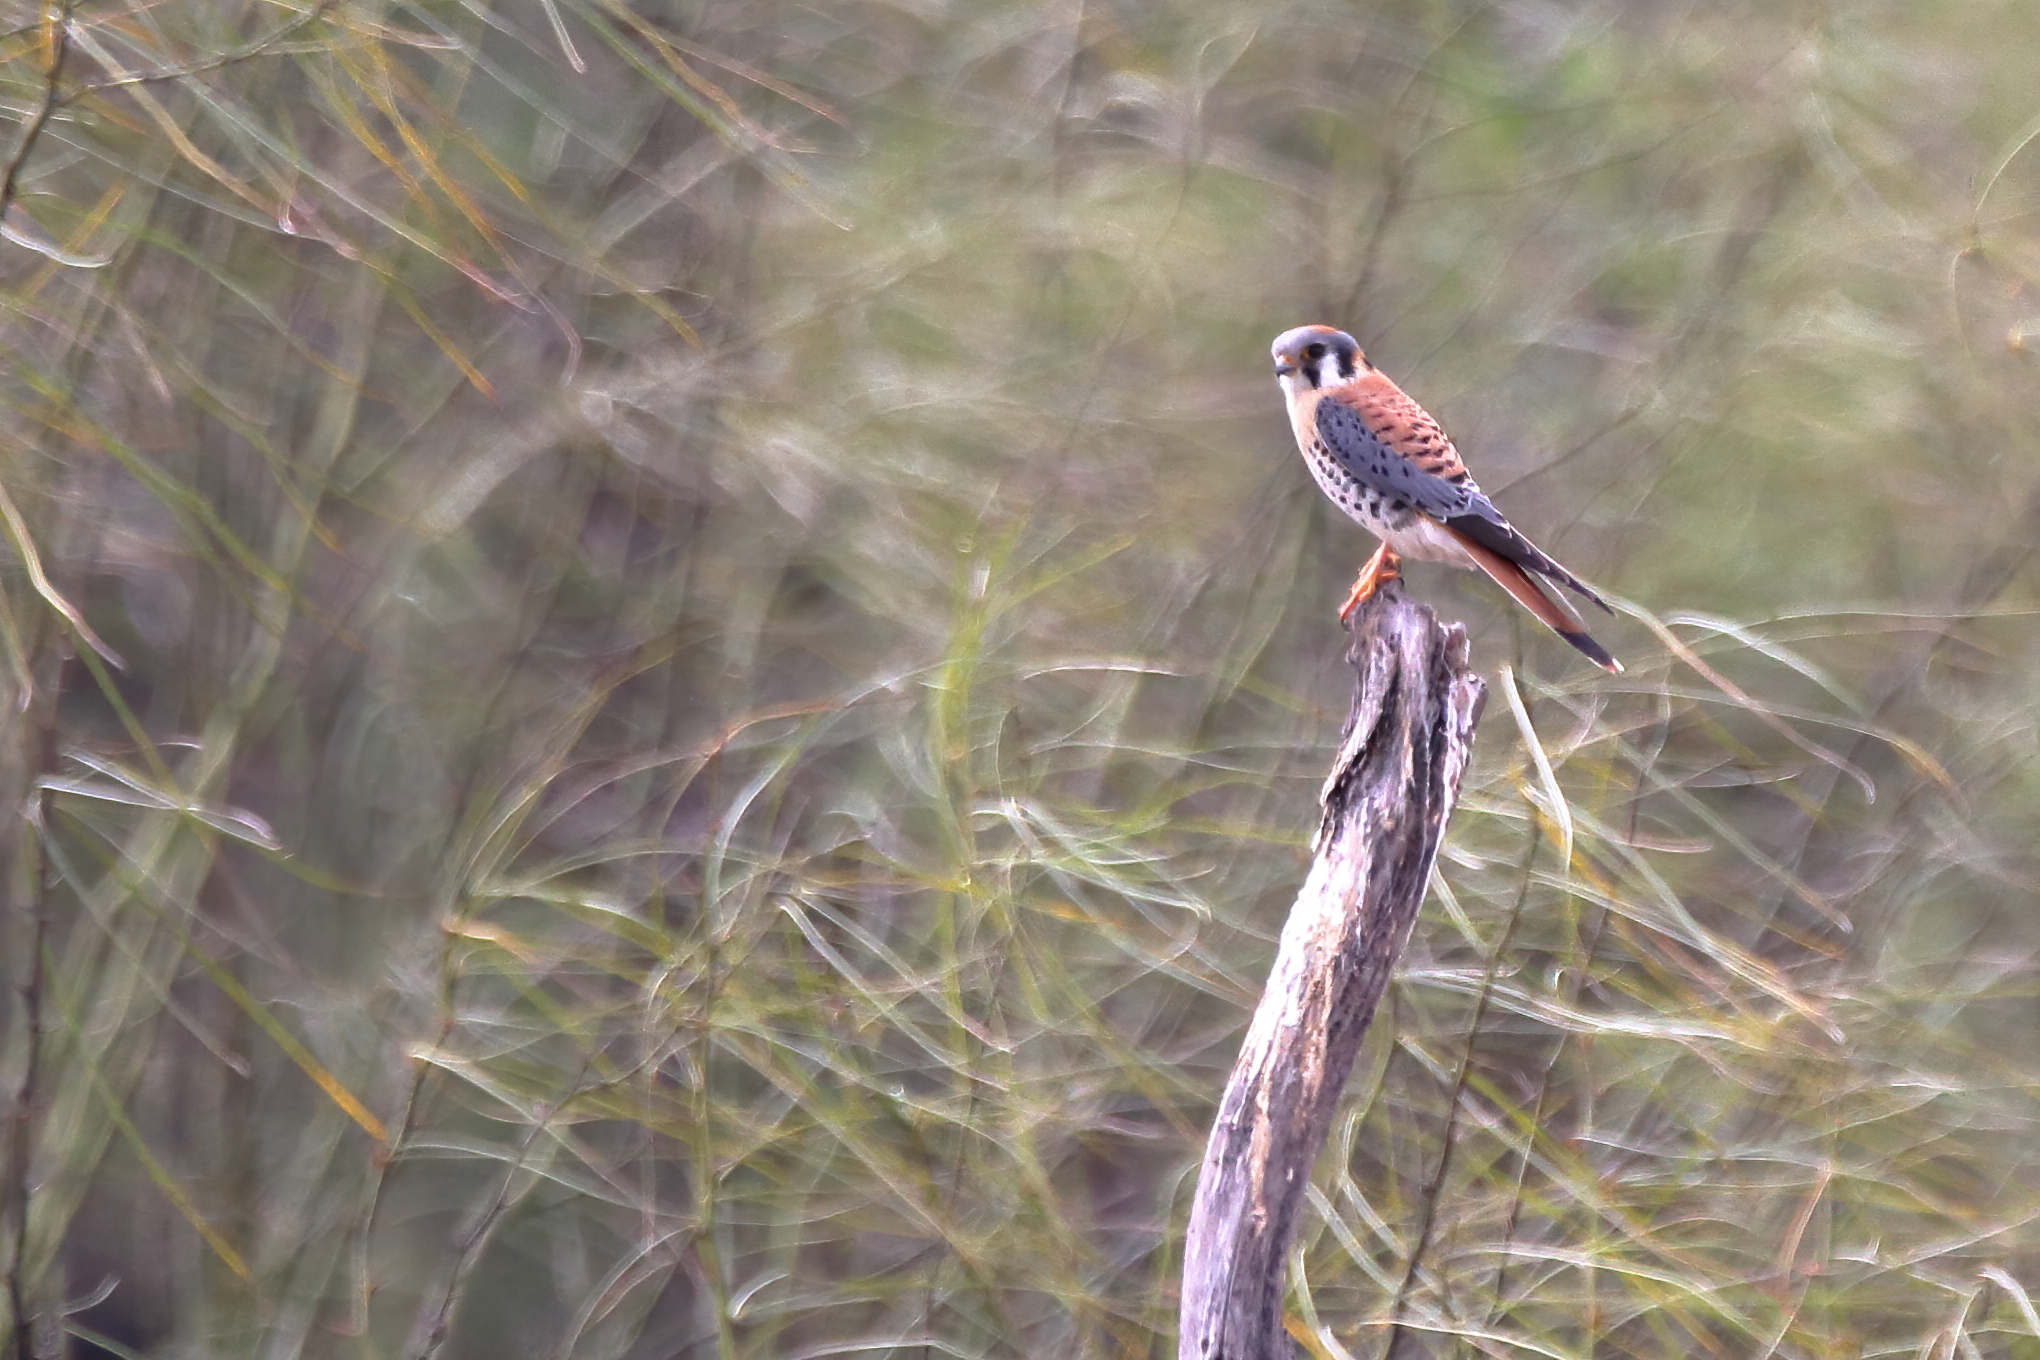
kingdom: Animalia
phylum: Chordata
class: Aves
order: Falconiformes
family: Falconidae
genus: Falco
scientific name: Falco sparverius
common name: American kestrel
